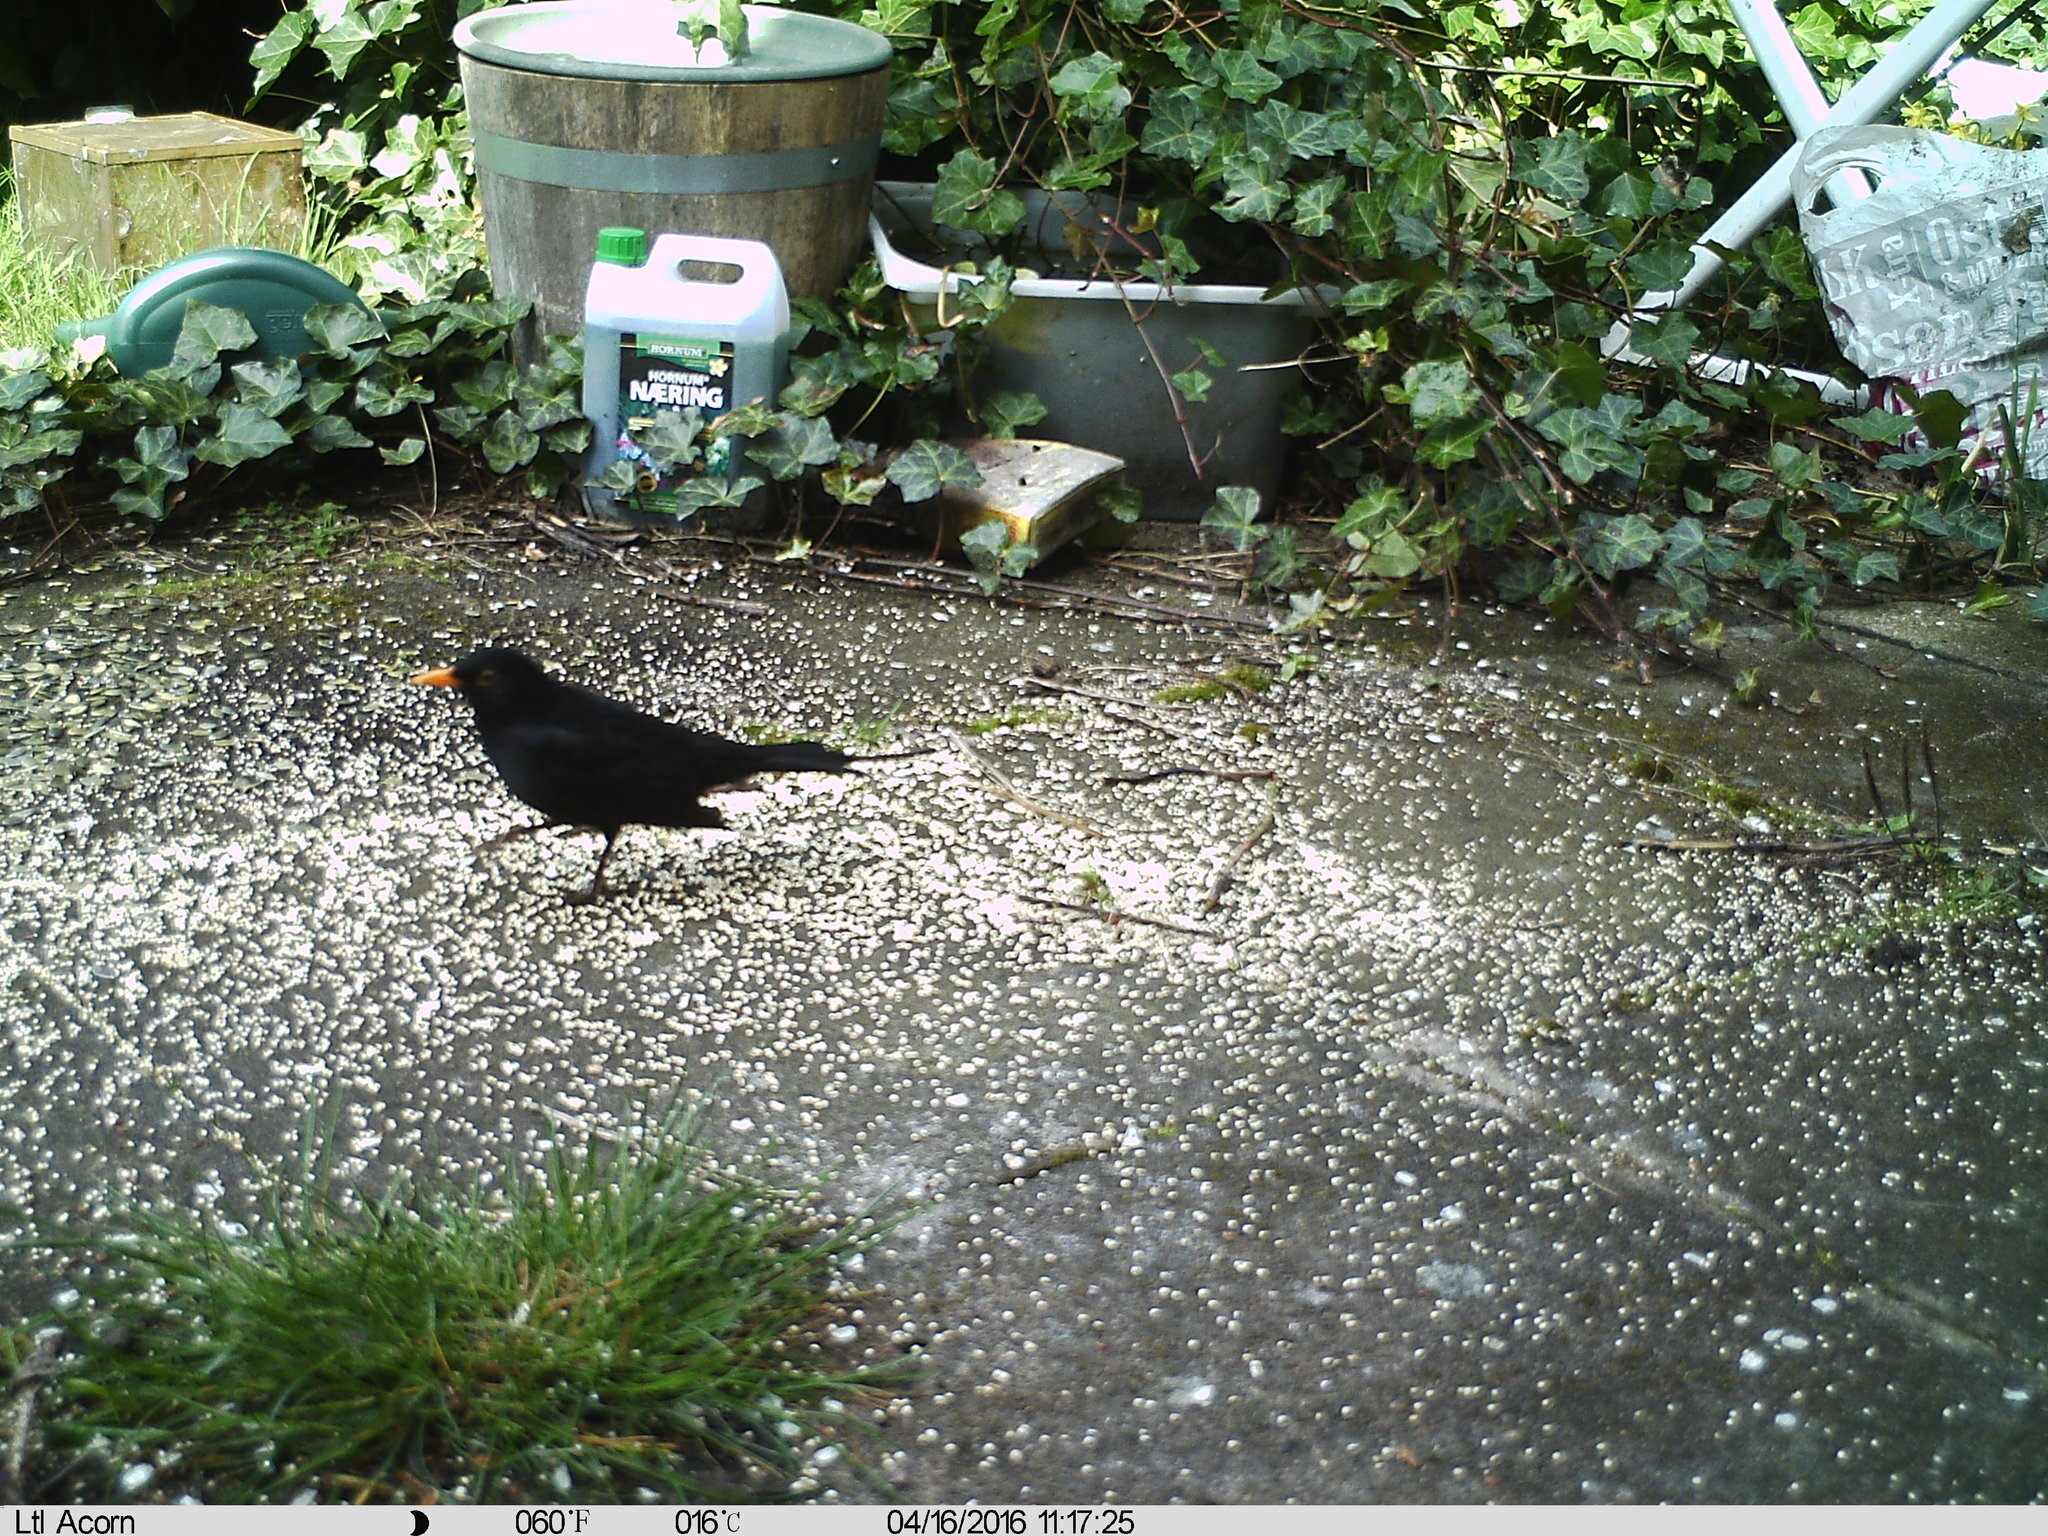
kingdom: Animalia
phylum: Chordata
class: Aves
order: Passeriformes
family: Turdidae
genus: Turdus
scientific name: Turdus merula
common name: Common blackbird
